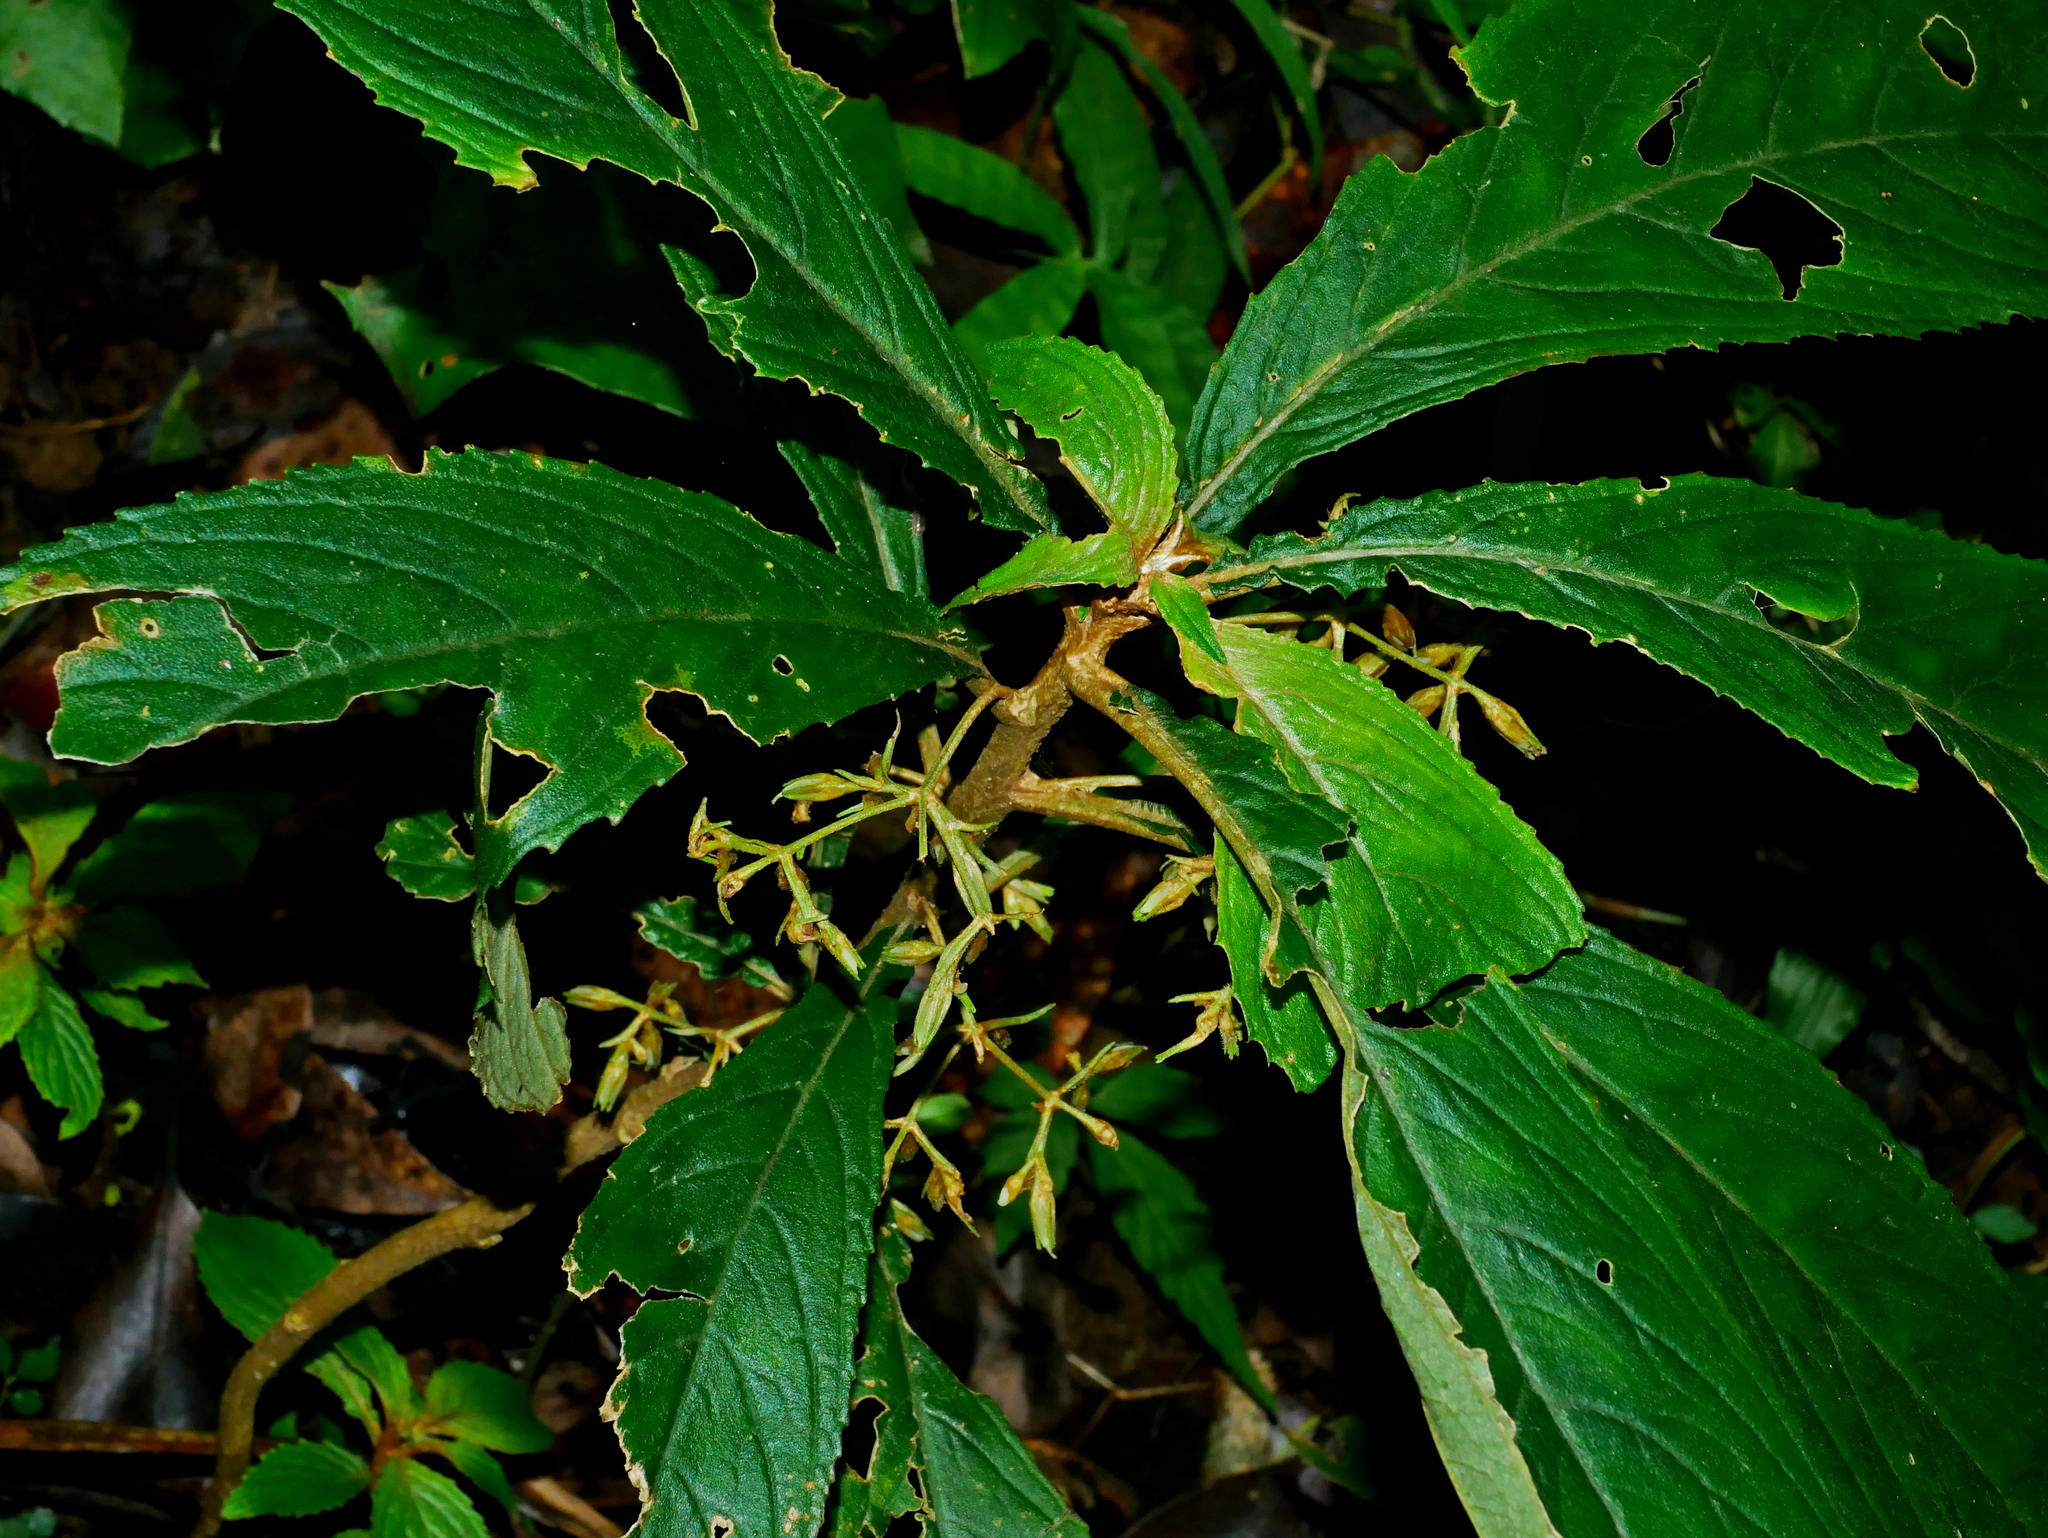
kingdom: Plantae
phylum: Tracheophyta
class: Magnoliopsida
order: Lamiales
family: Gesneriaceae
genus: Rhynchotechum
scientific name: Rhynchotechum discolor
